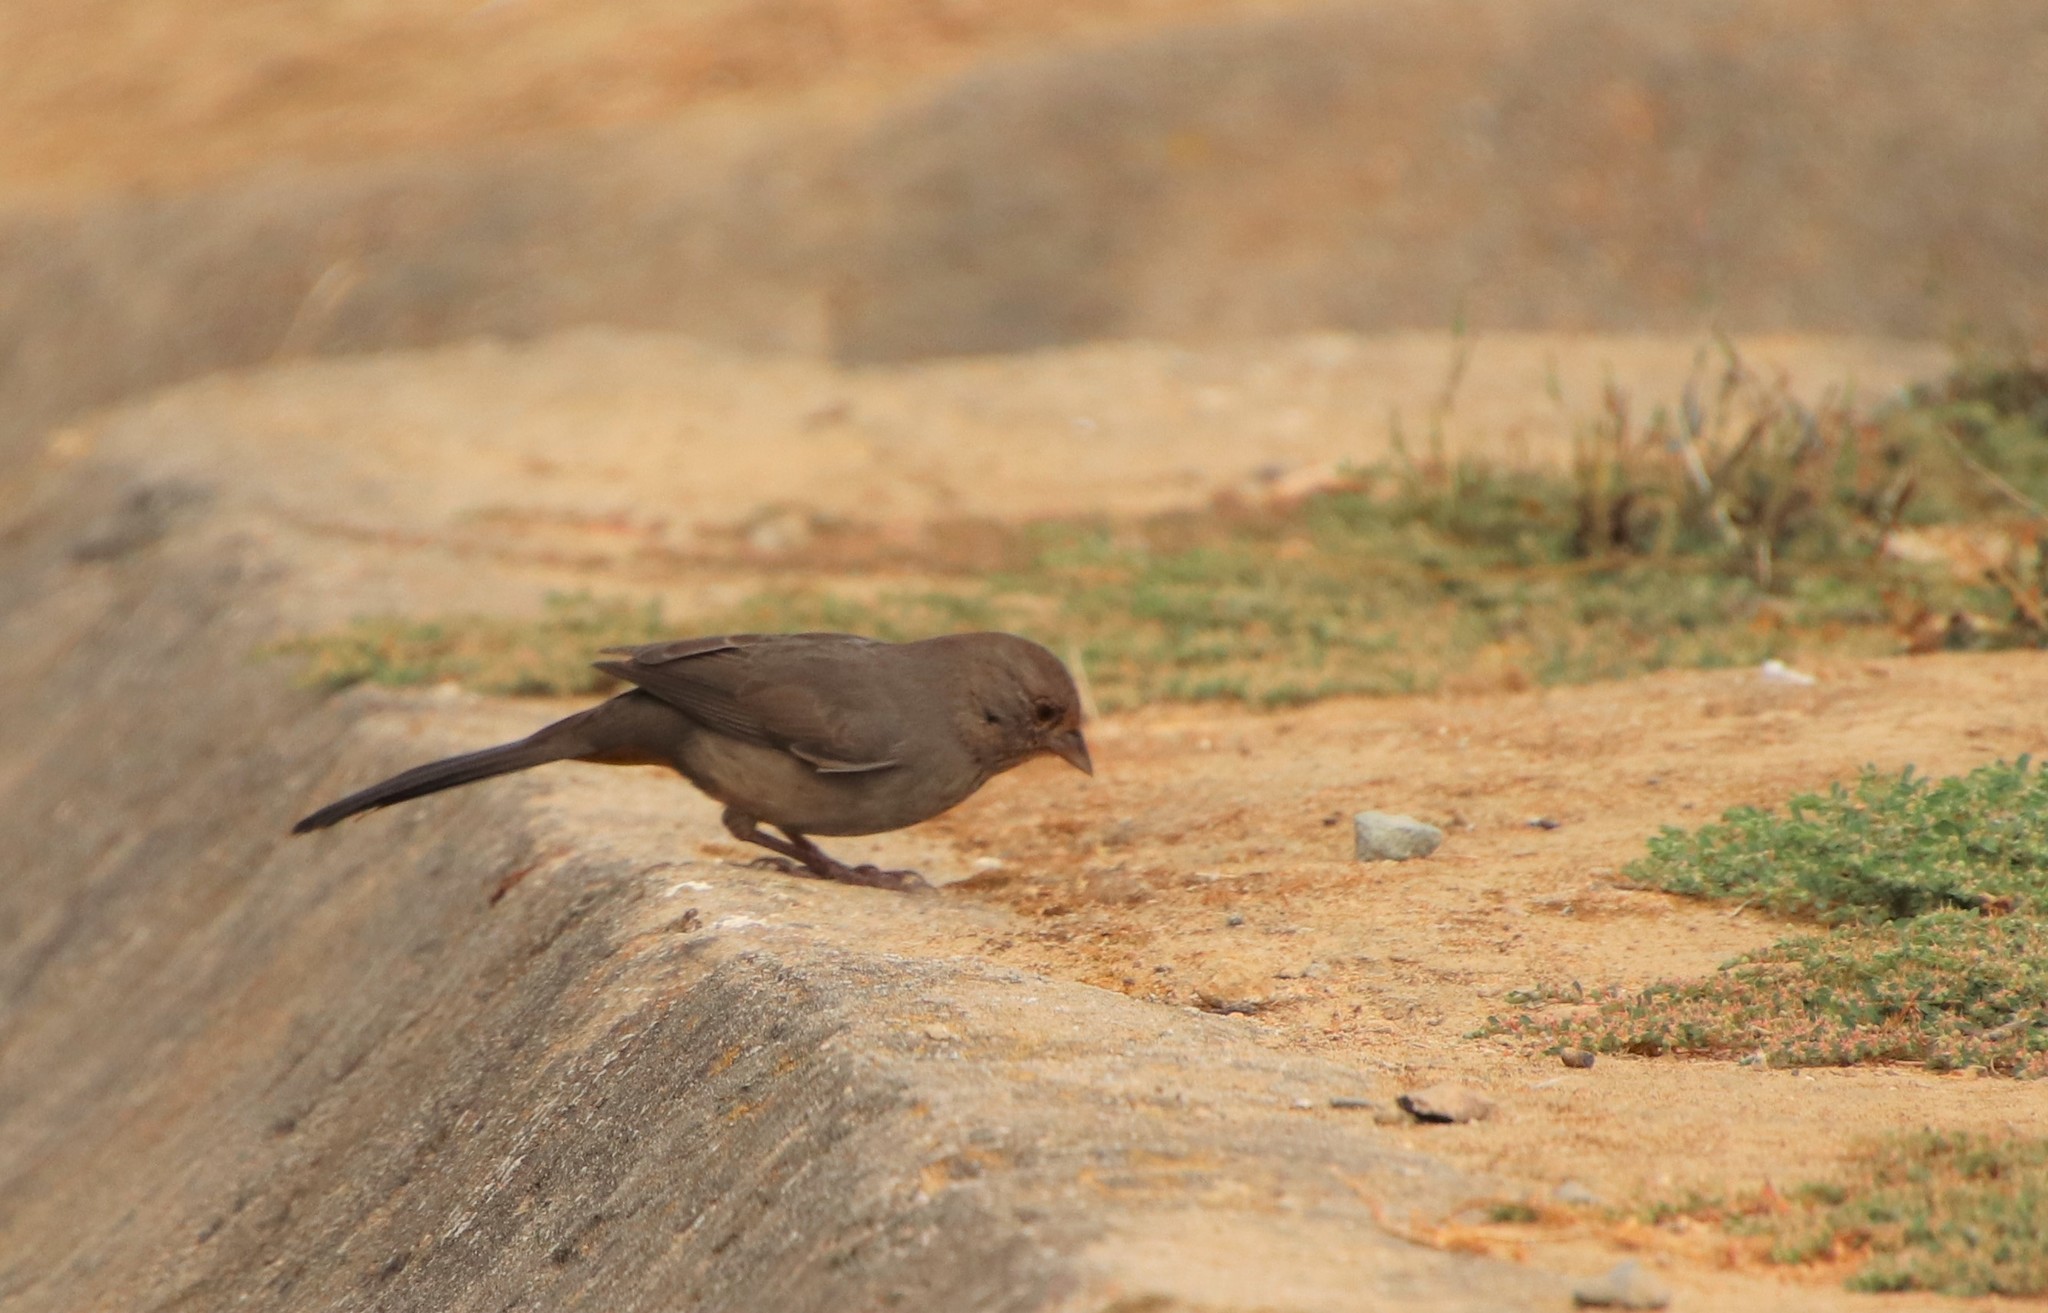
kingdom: Animalia
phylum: Chordata
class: Aves
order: Passeriformes
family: Passerellidae
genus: Melozone
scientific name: Melozone crissalis
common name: California towhee
